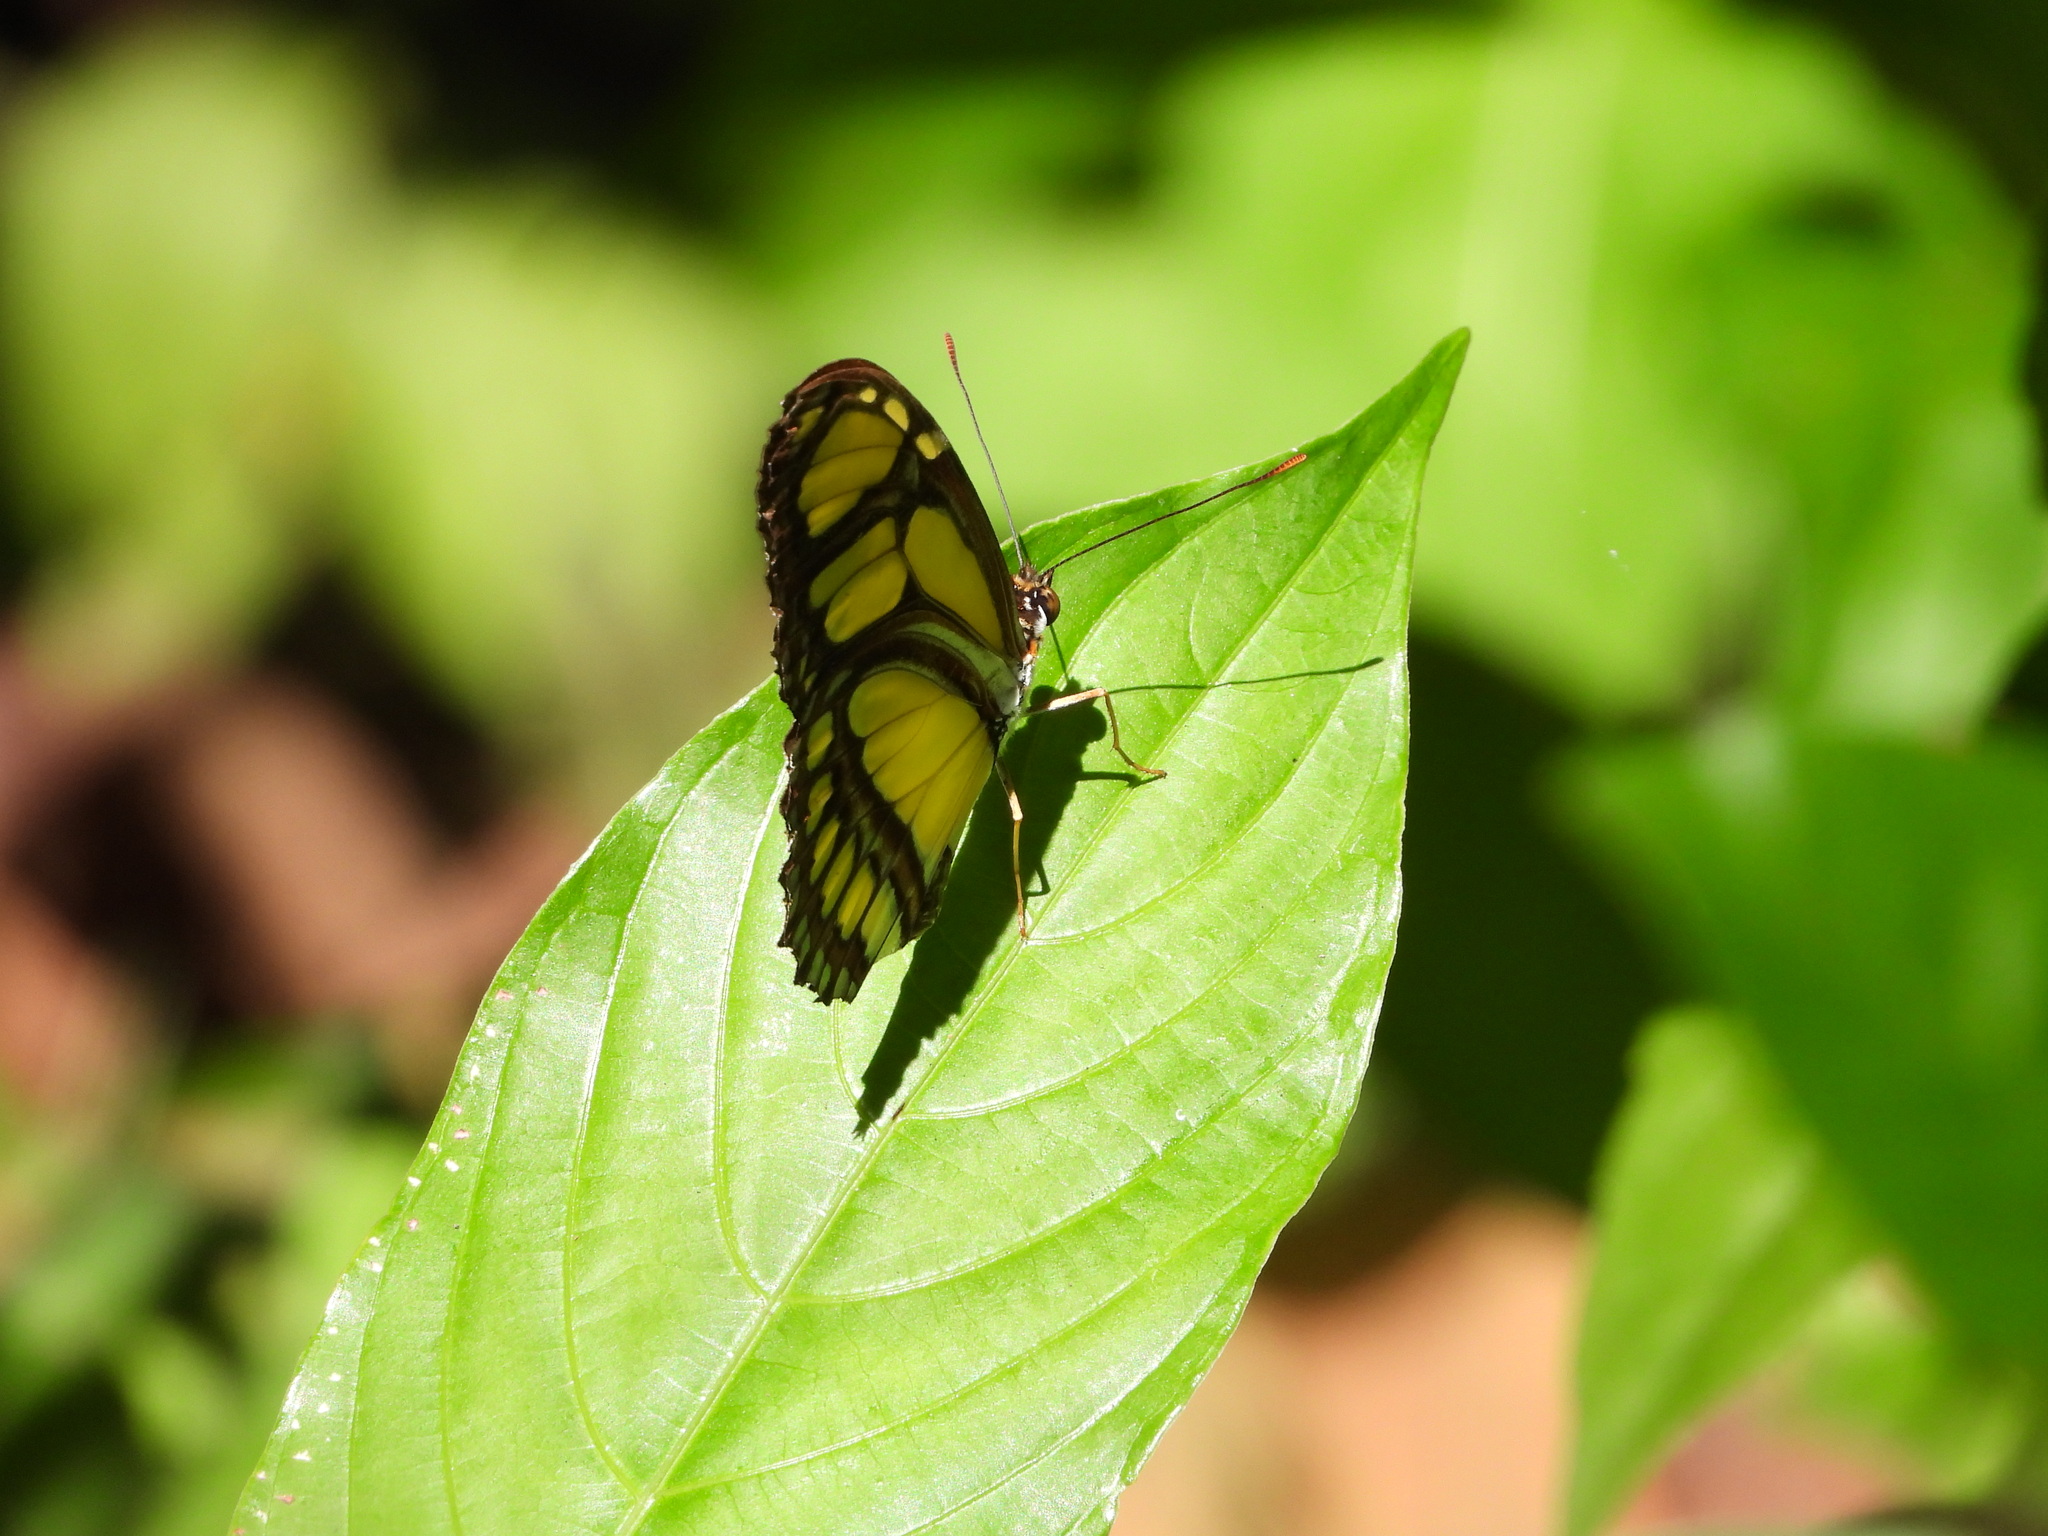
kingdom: Animalia
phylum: Arthropoda
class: Insecta
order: Lepidoptera
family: Nymphalidae
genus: Philaethria
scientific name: Philaethria dido
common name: Scarce bamboo page
